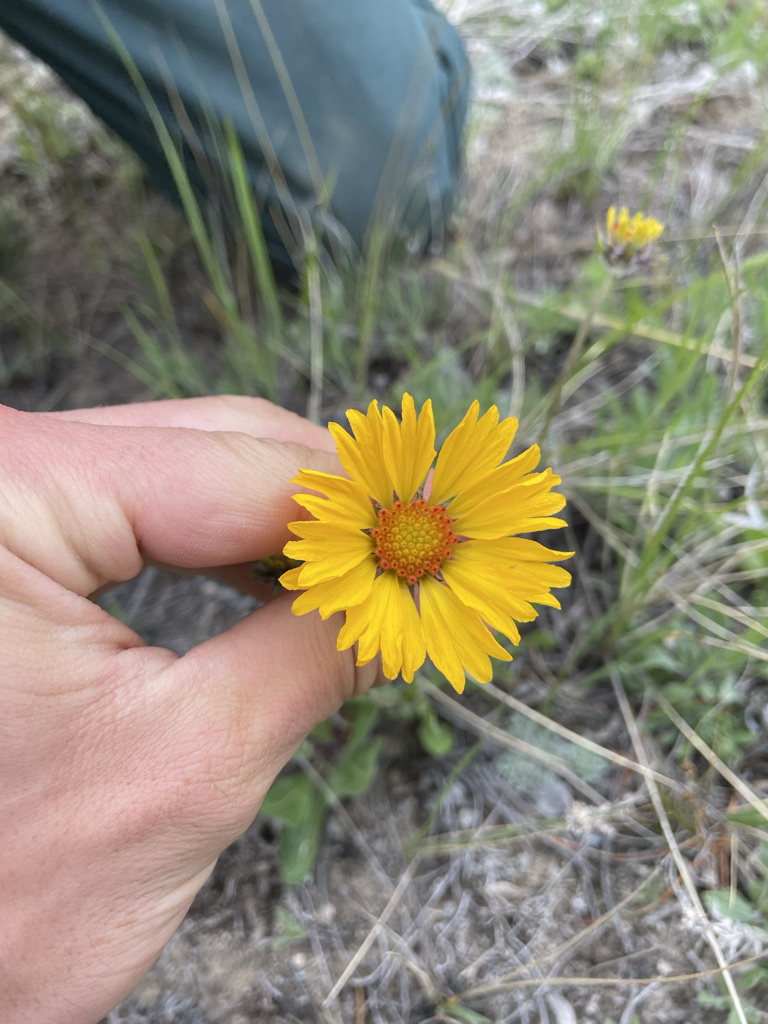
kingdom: Plantae
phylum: Tracheophyta
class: Magnoliopsida
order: Asterales
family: Asteraceae
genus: Gaillardia
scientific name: Gaillardia aristata
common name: Blanket-flower
